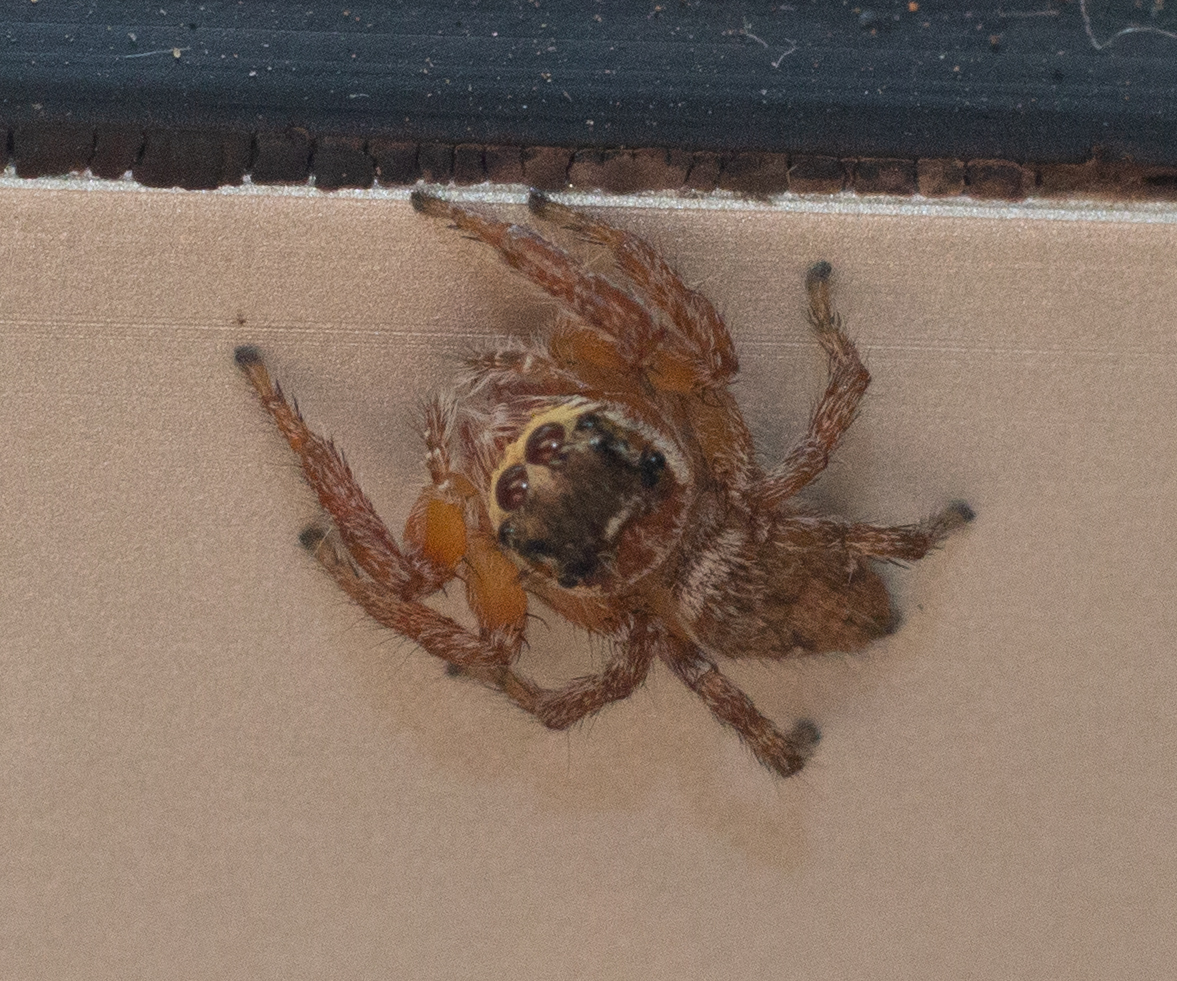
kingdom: Animalia
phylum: Arthropoda
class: Arachnida
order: Araneae
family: Salticidae
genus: Evarcha
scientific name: Evarcha jucunda
